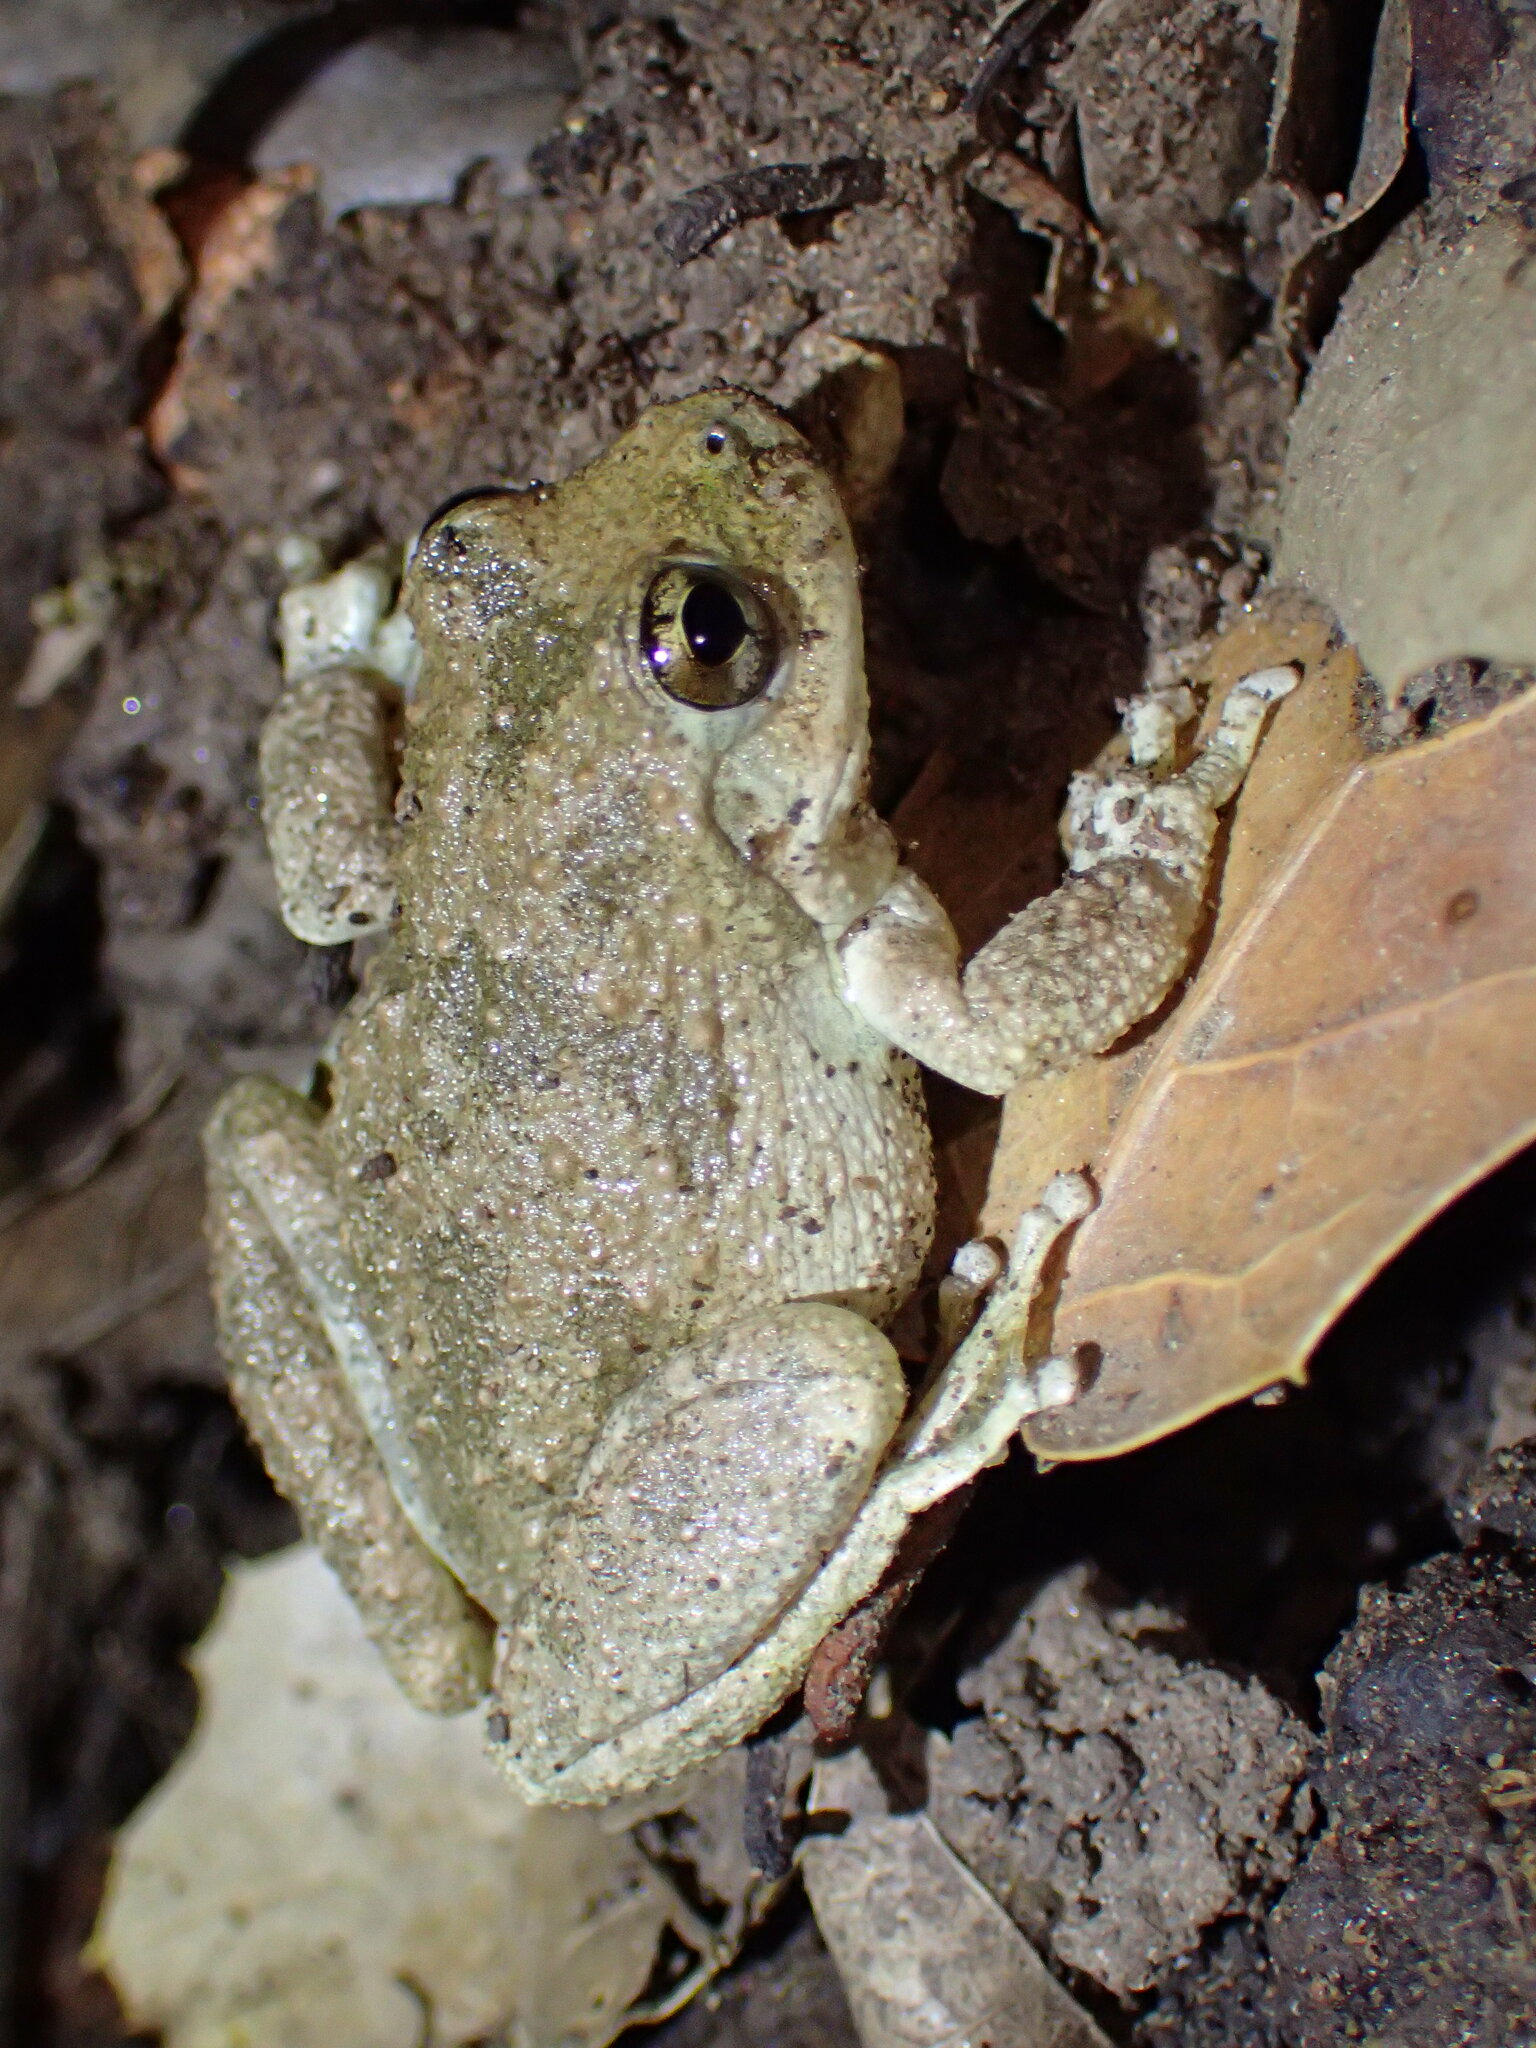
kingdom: Animalia
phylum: Chordata
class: Amphibia
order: Anura
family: Hylidae
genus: Pseudacris
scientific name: Pseudacris cadaverina
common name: California chorus frog
